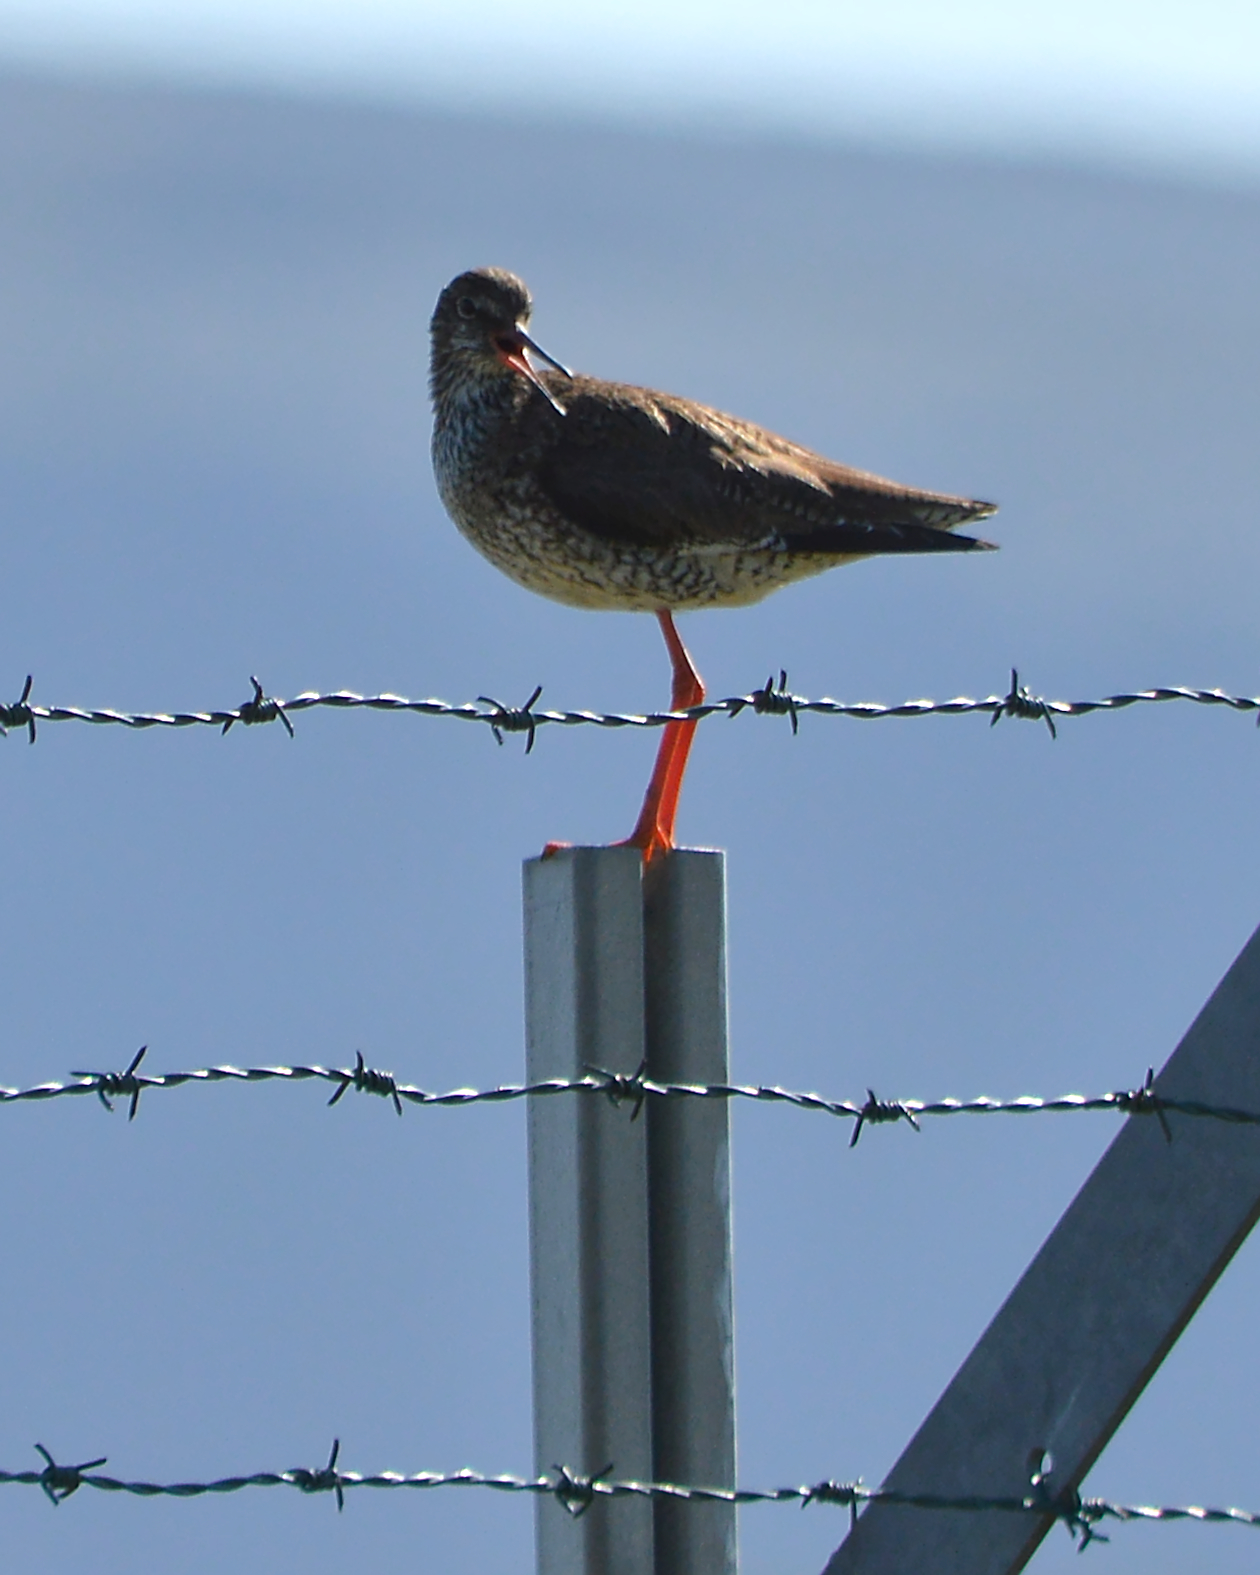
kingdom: Animalia
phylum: Chordata
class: Aves
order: Charadriiformes
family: Scolopacidae
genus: Tringa
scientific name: Tringa totanus
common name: Common redshank
